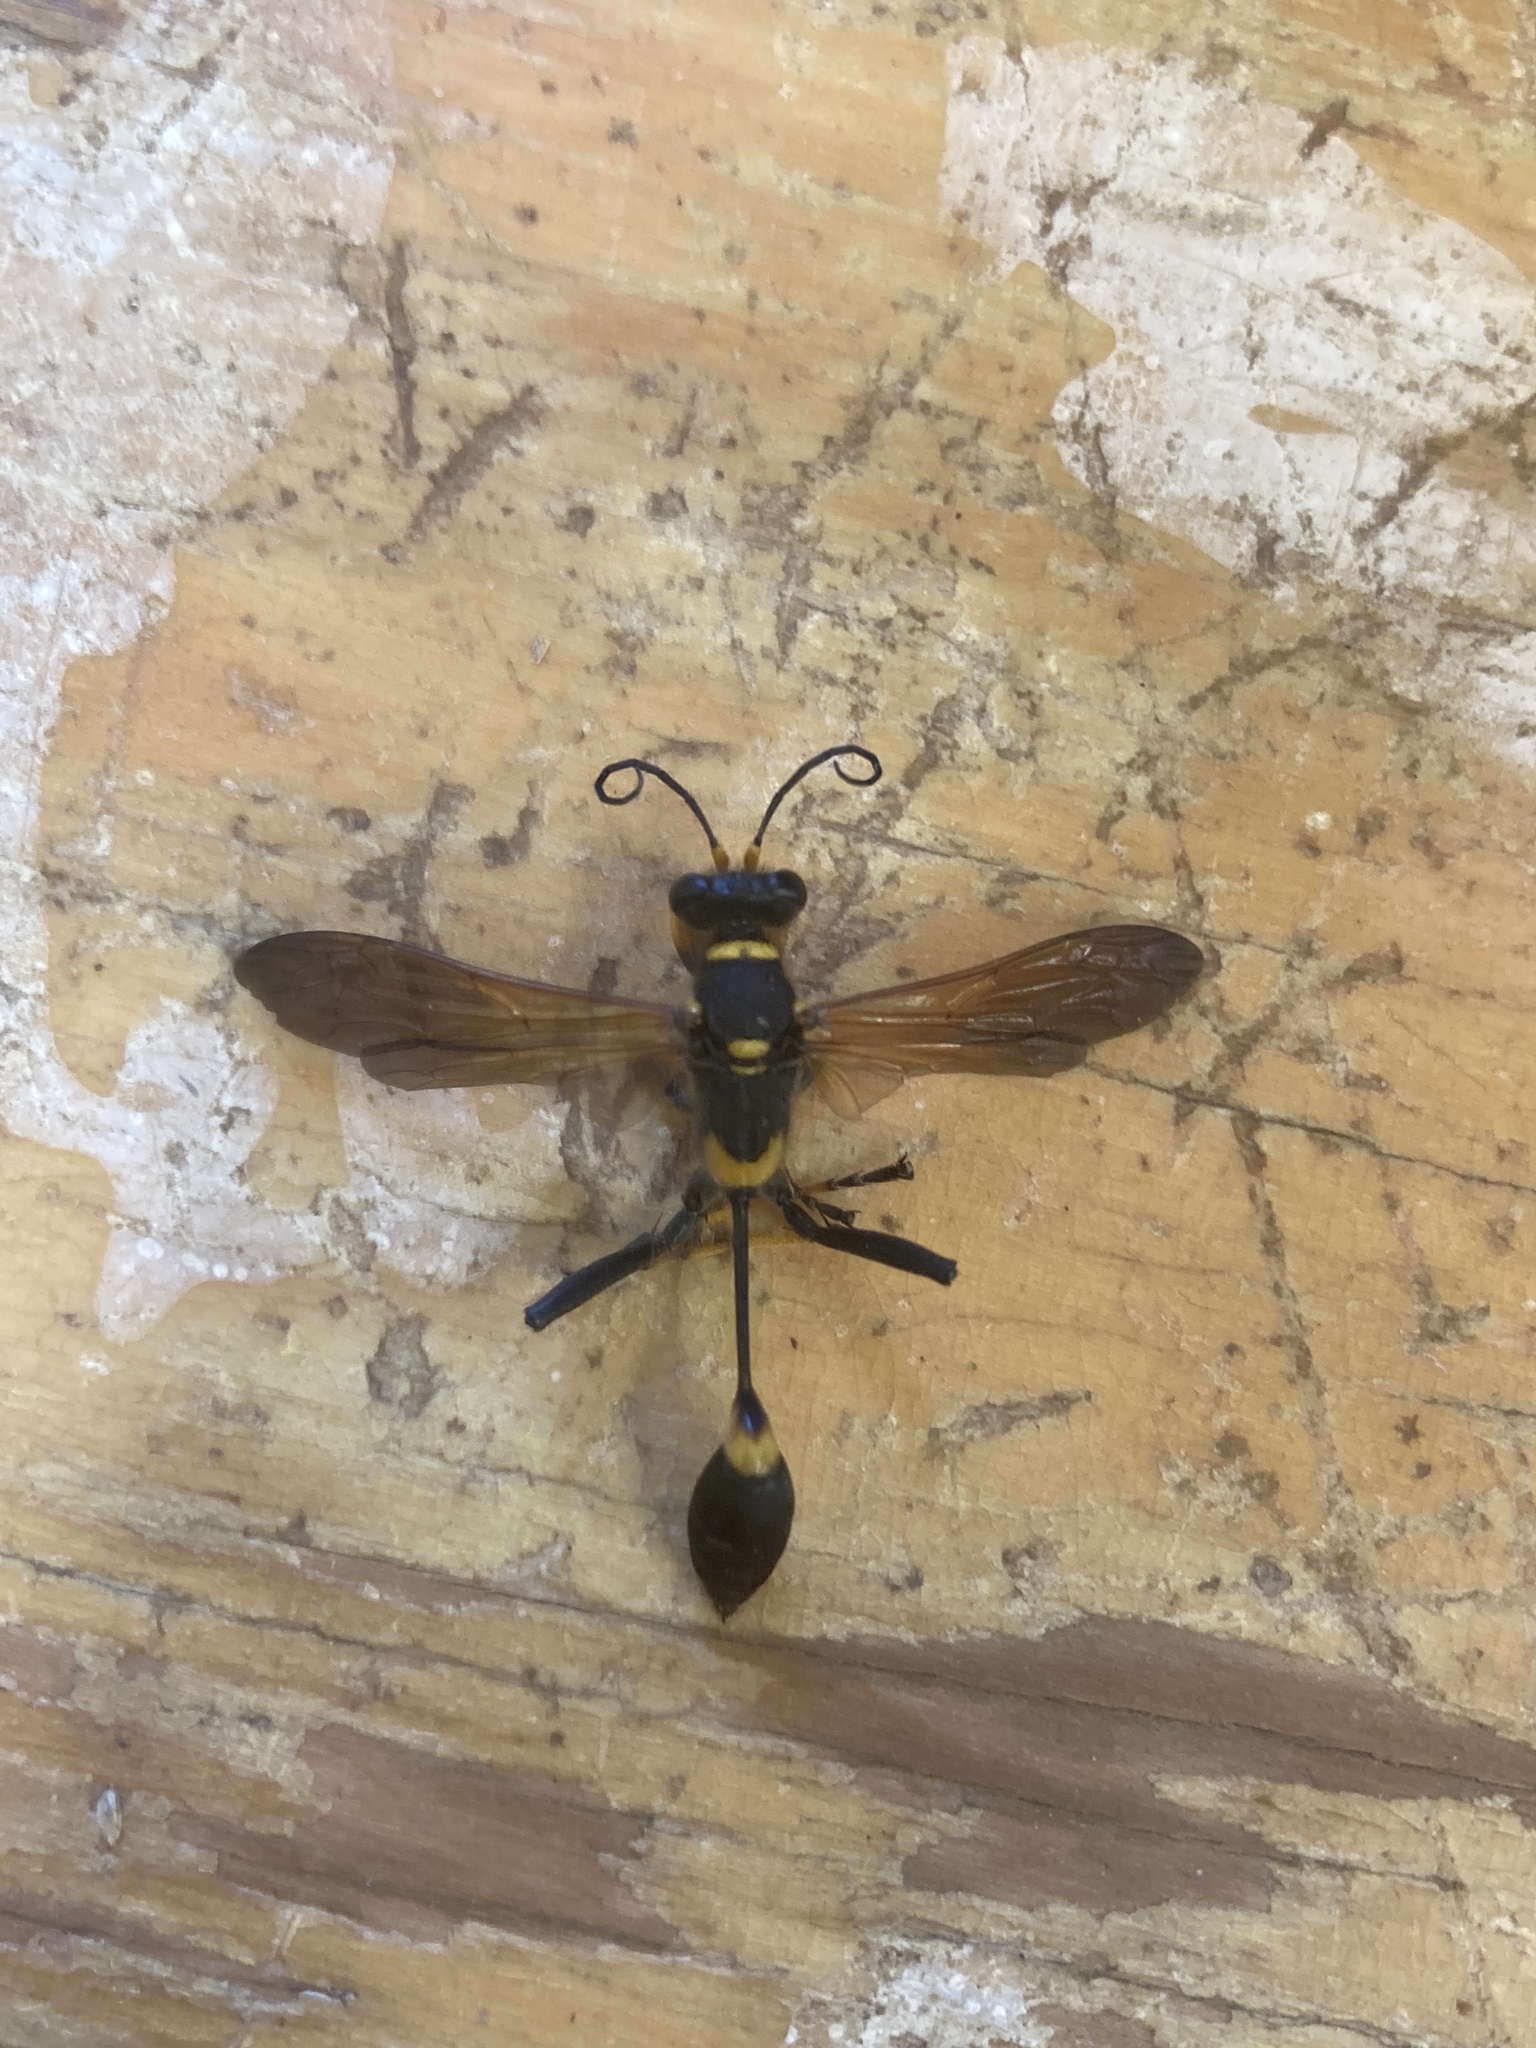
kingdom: Animalia
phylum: Arthropoda
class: Insecta
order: Hymenoptera
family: Sphecidae
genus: Sceliphron
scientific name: Sceliphron caementarium
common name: Mud dauber
